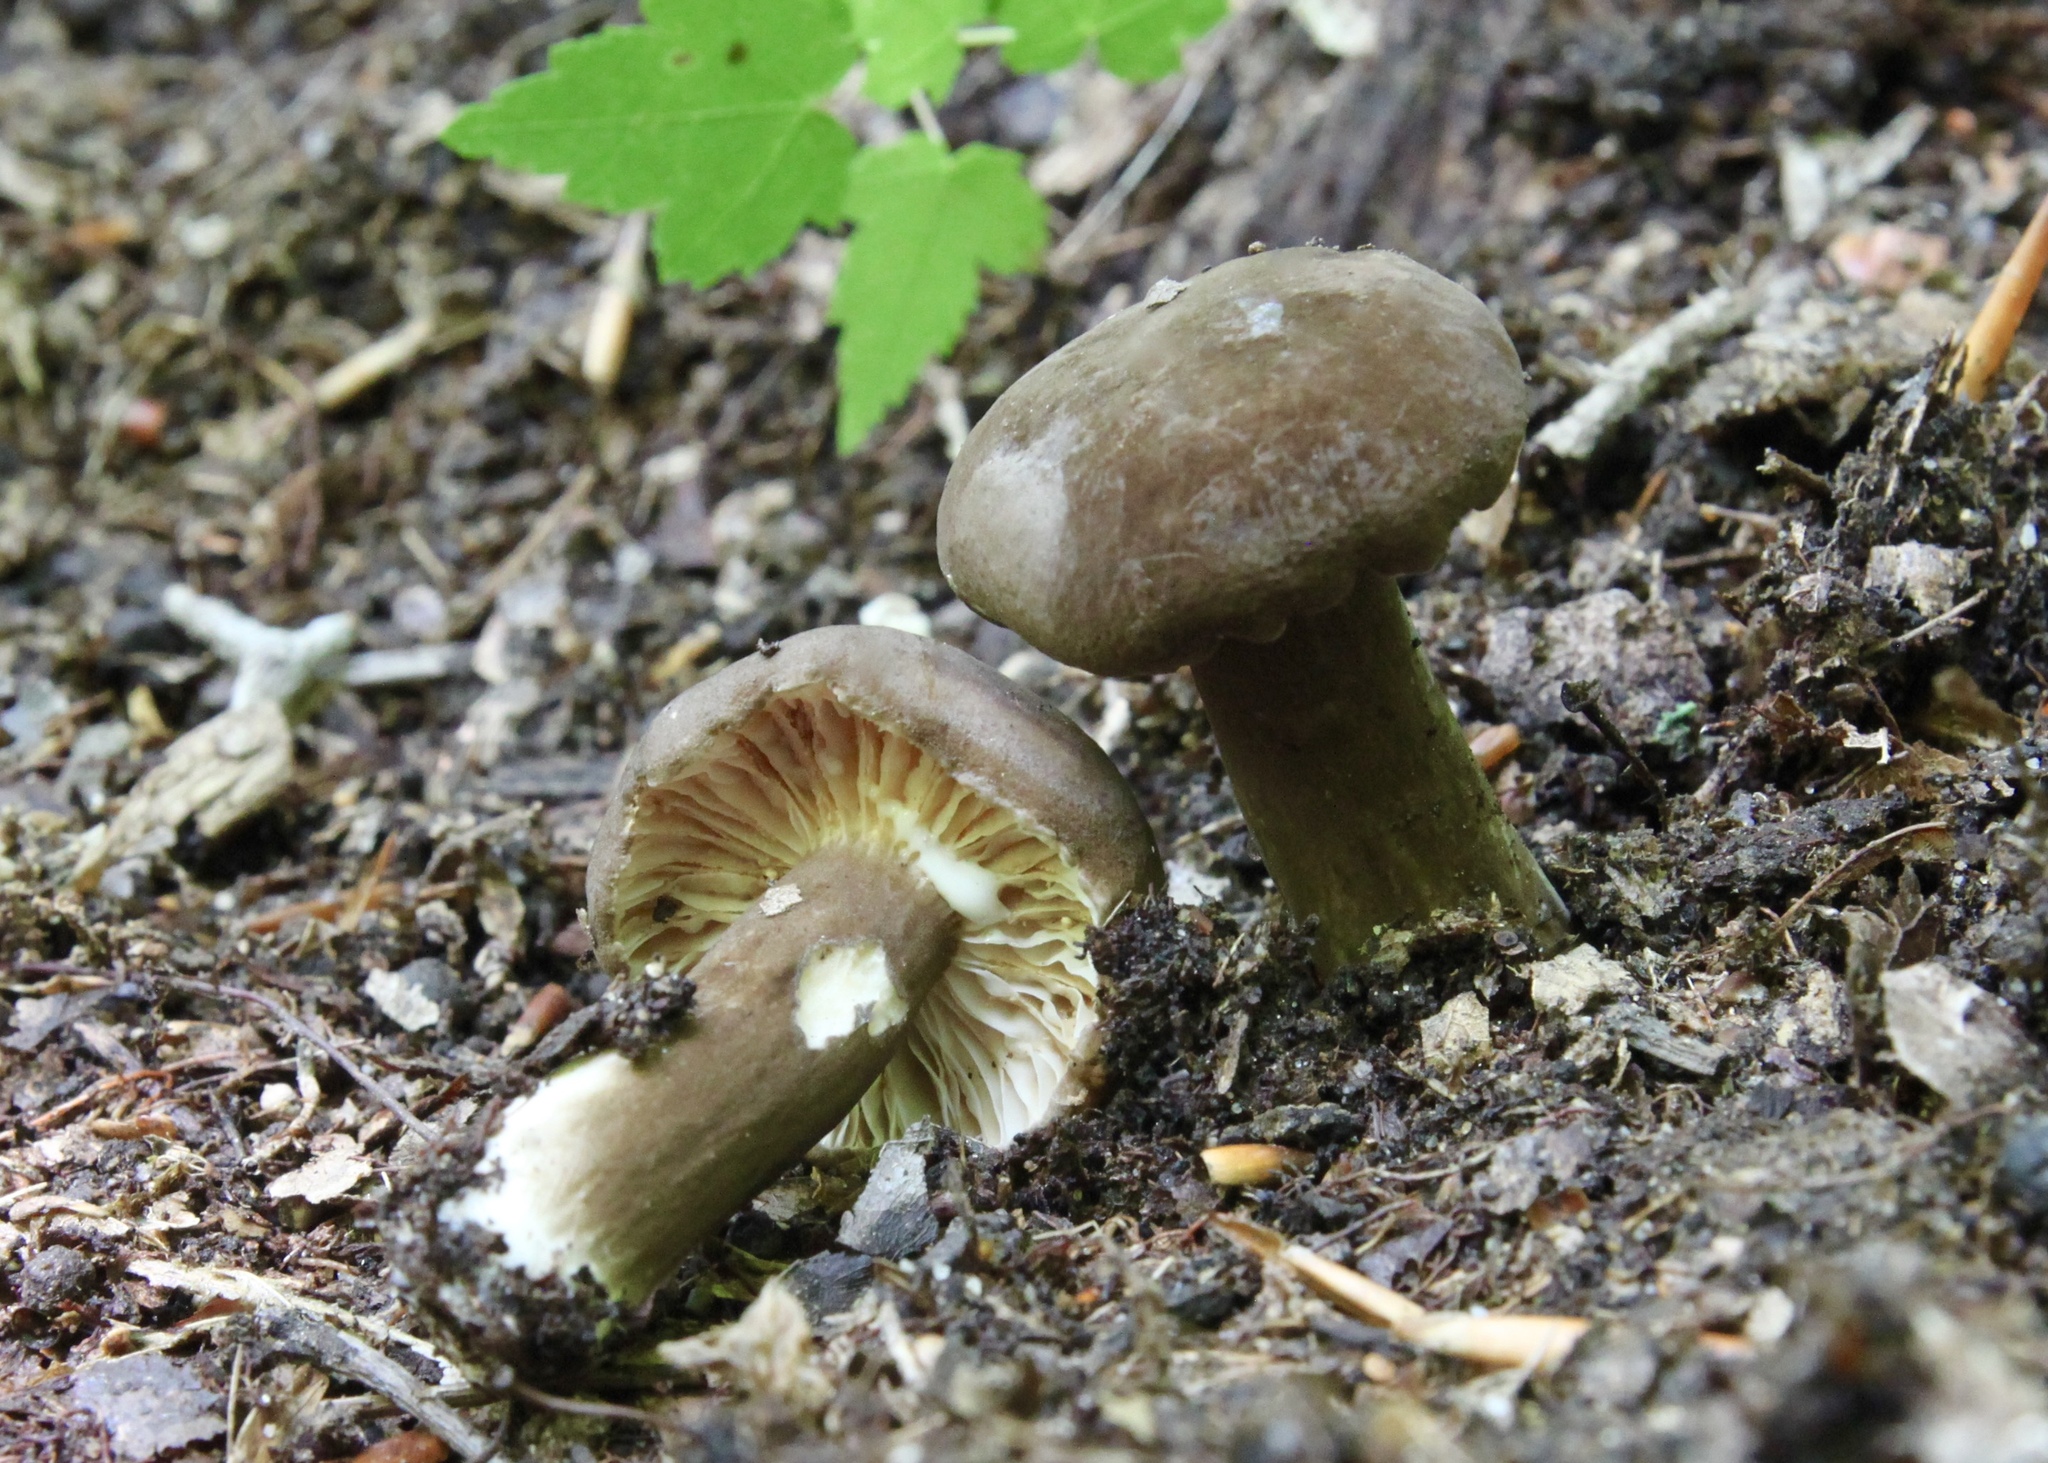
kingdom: Fungi
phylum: Basidiomycota
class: Agaricomycetes
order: Russulales
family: Russulaceae
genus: Lactarius
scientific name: Lactarius lignyotus
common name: Velvet milkcap
